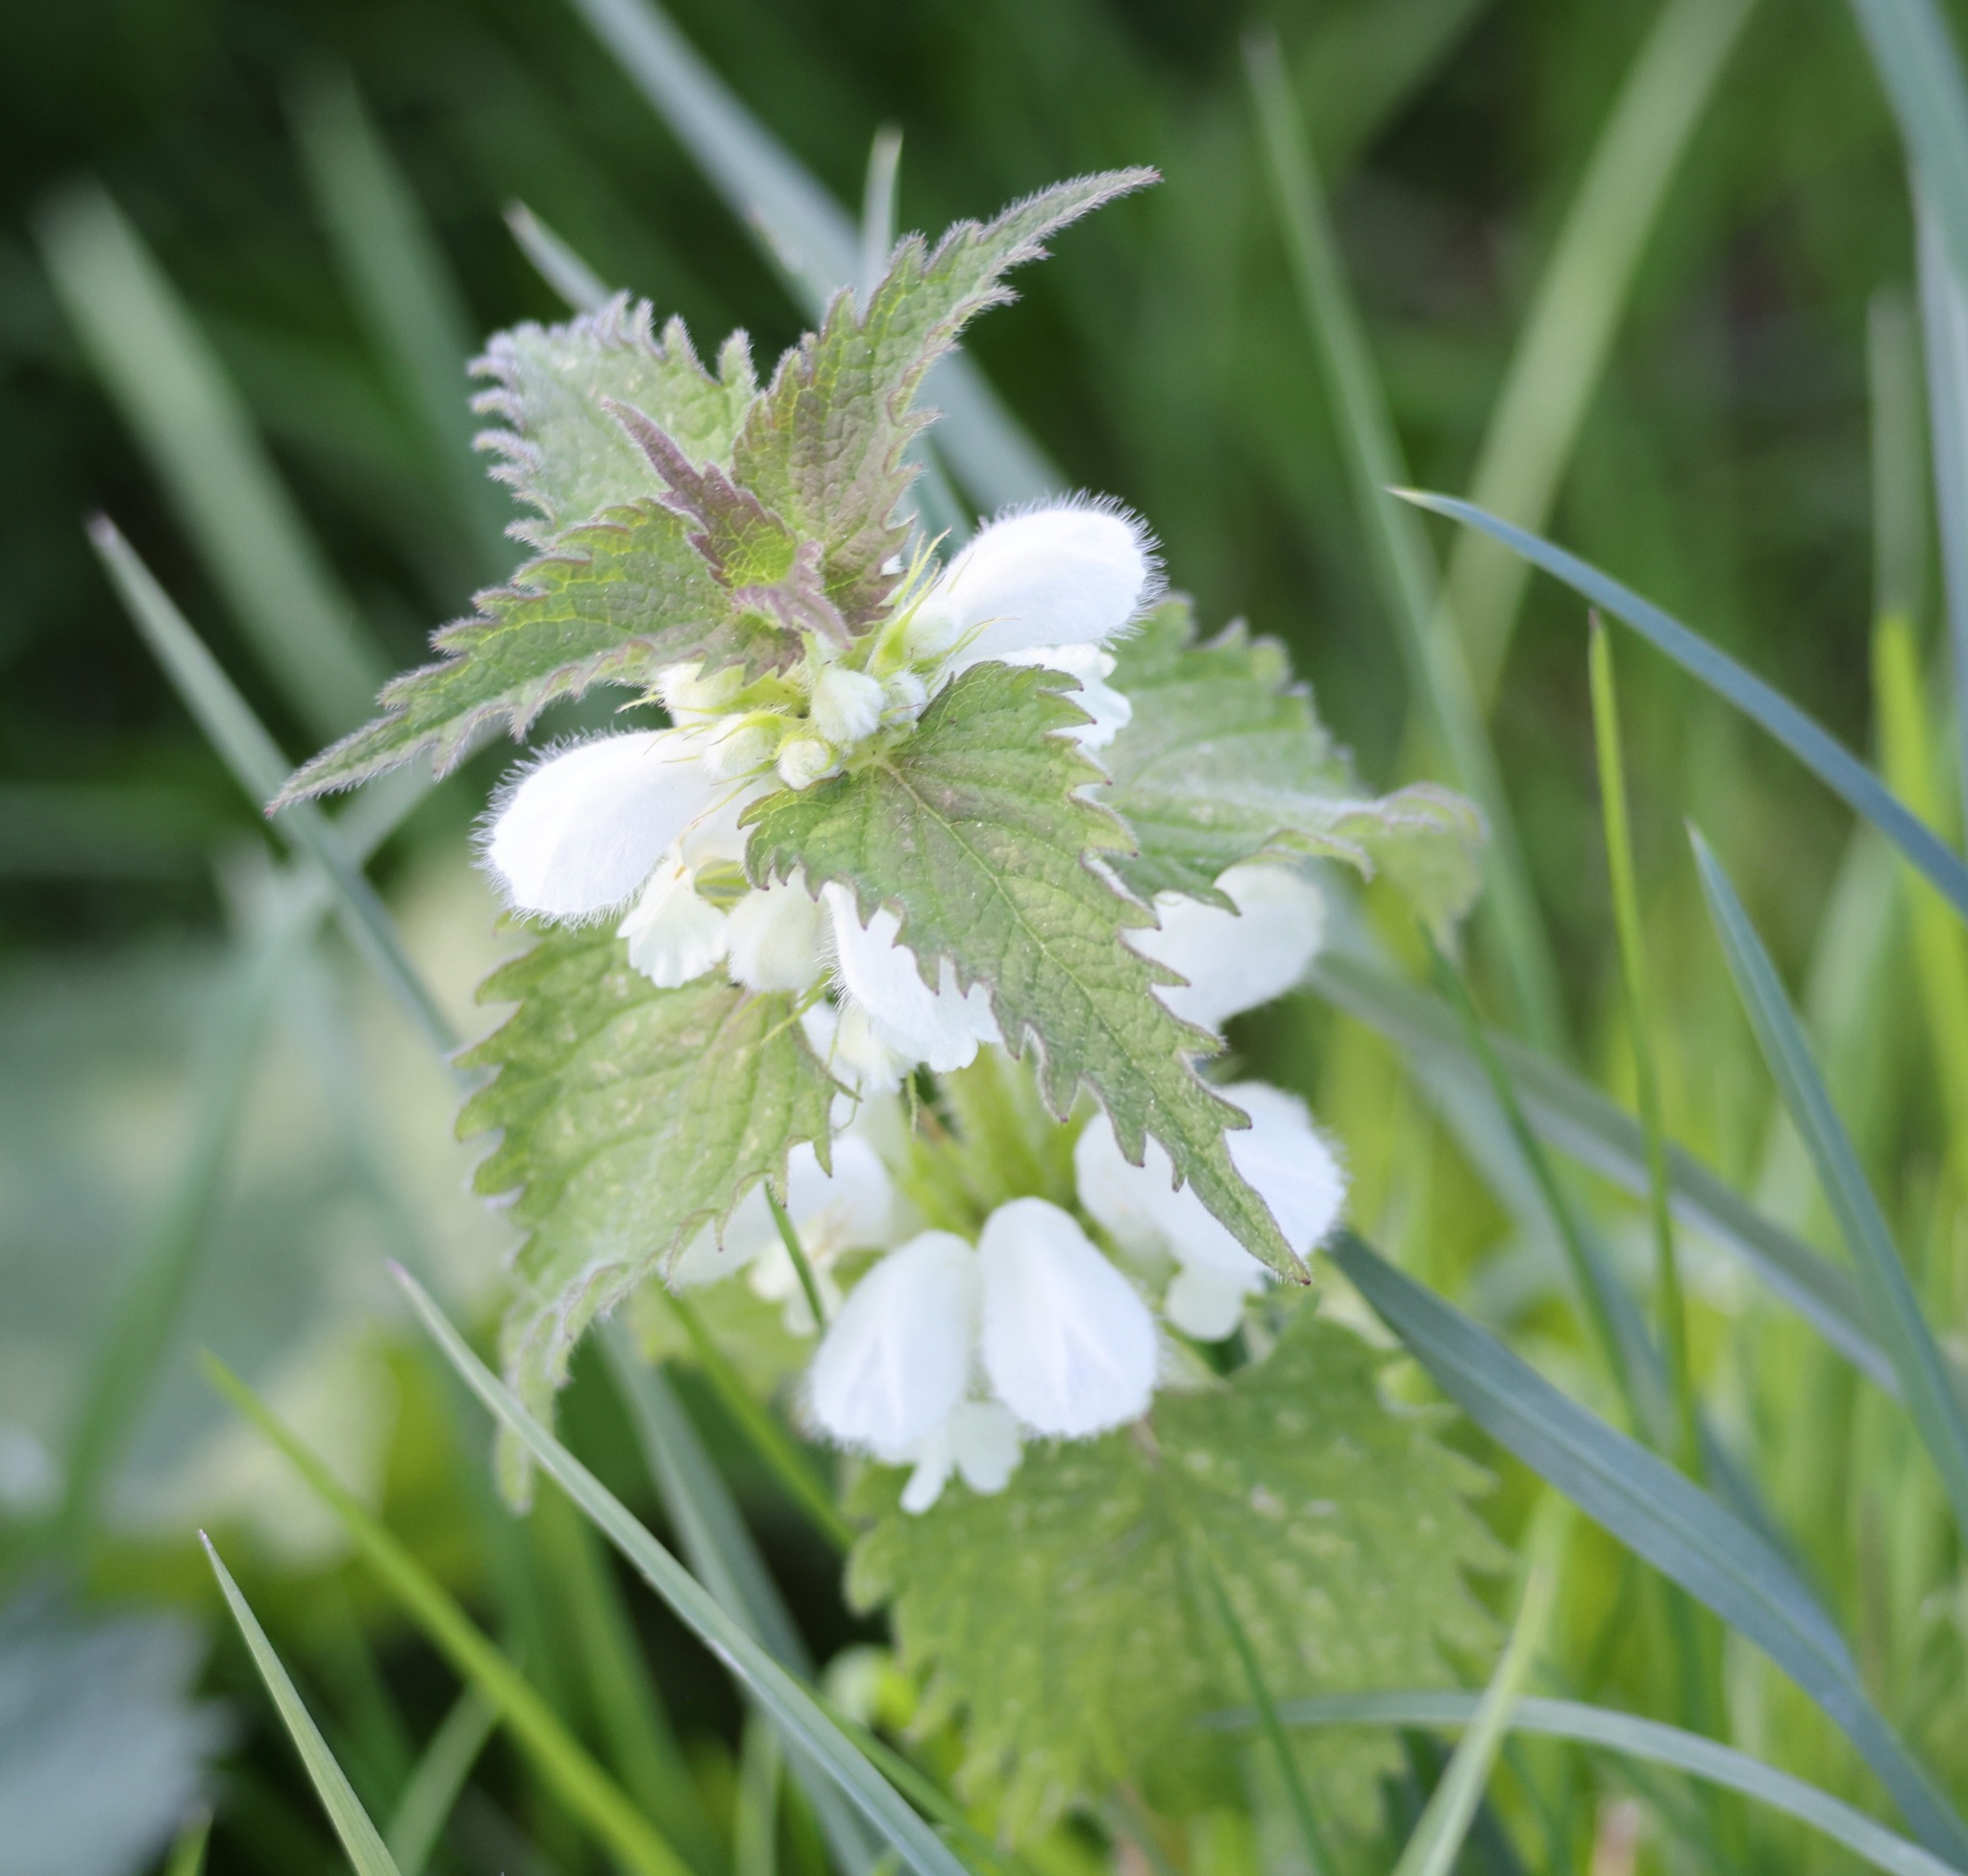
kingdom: Plantae
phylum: Tracheophyta
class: Magnoliopsida
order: Lamiales
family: Lamiaceae
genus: Lamium
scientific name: Lamium album
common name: White dead-nettle
